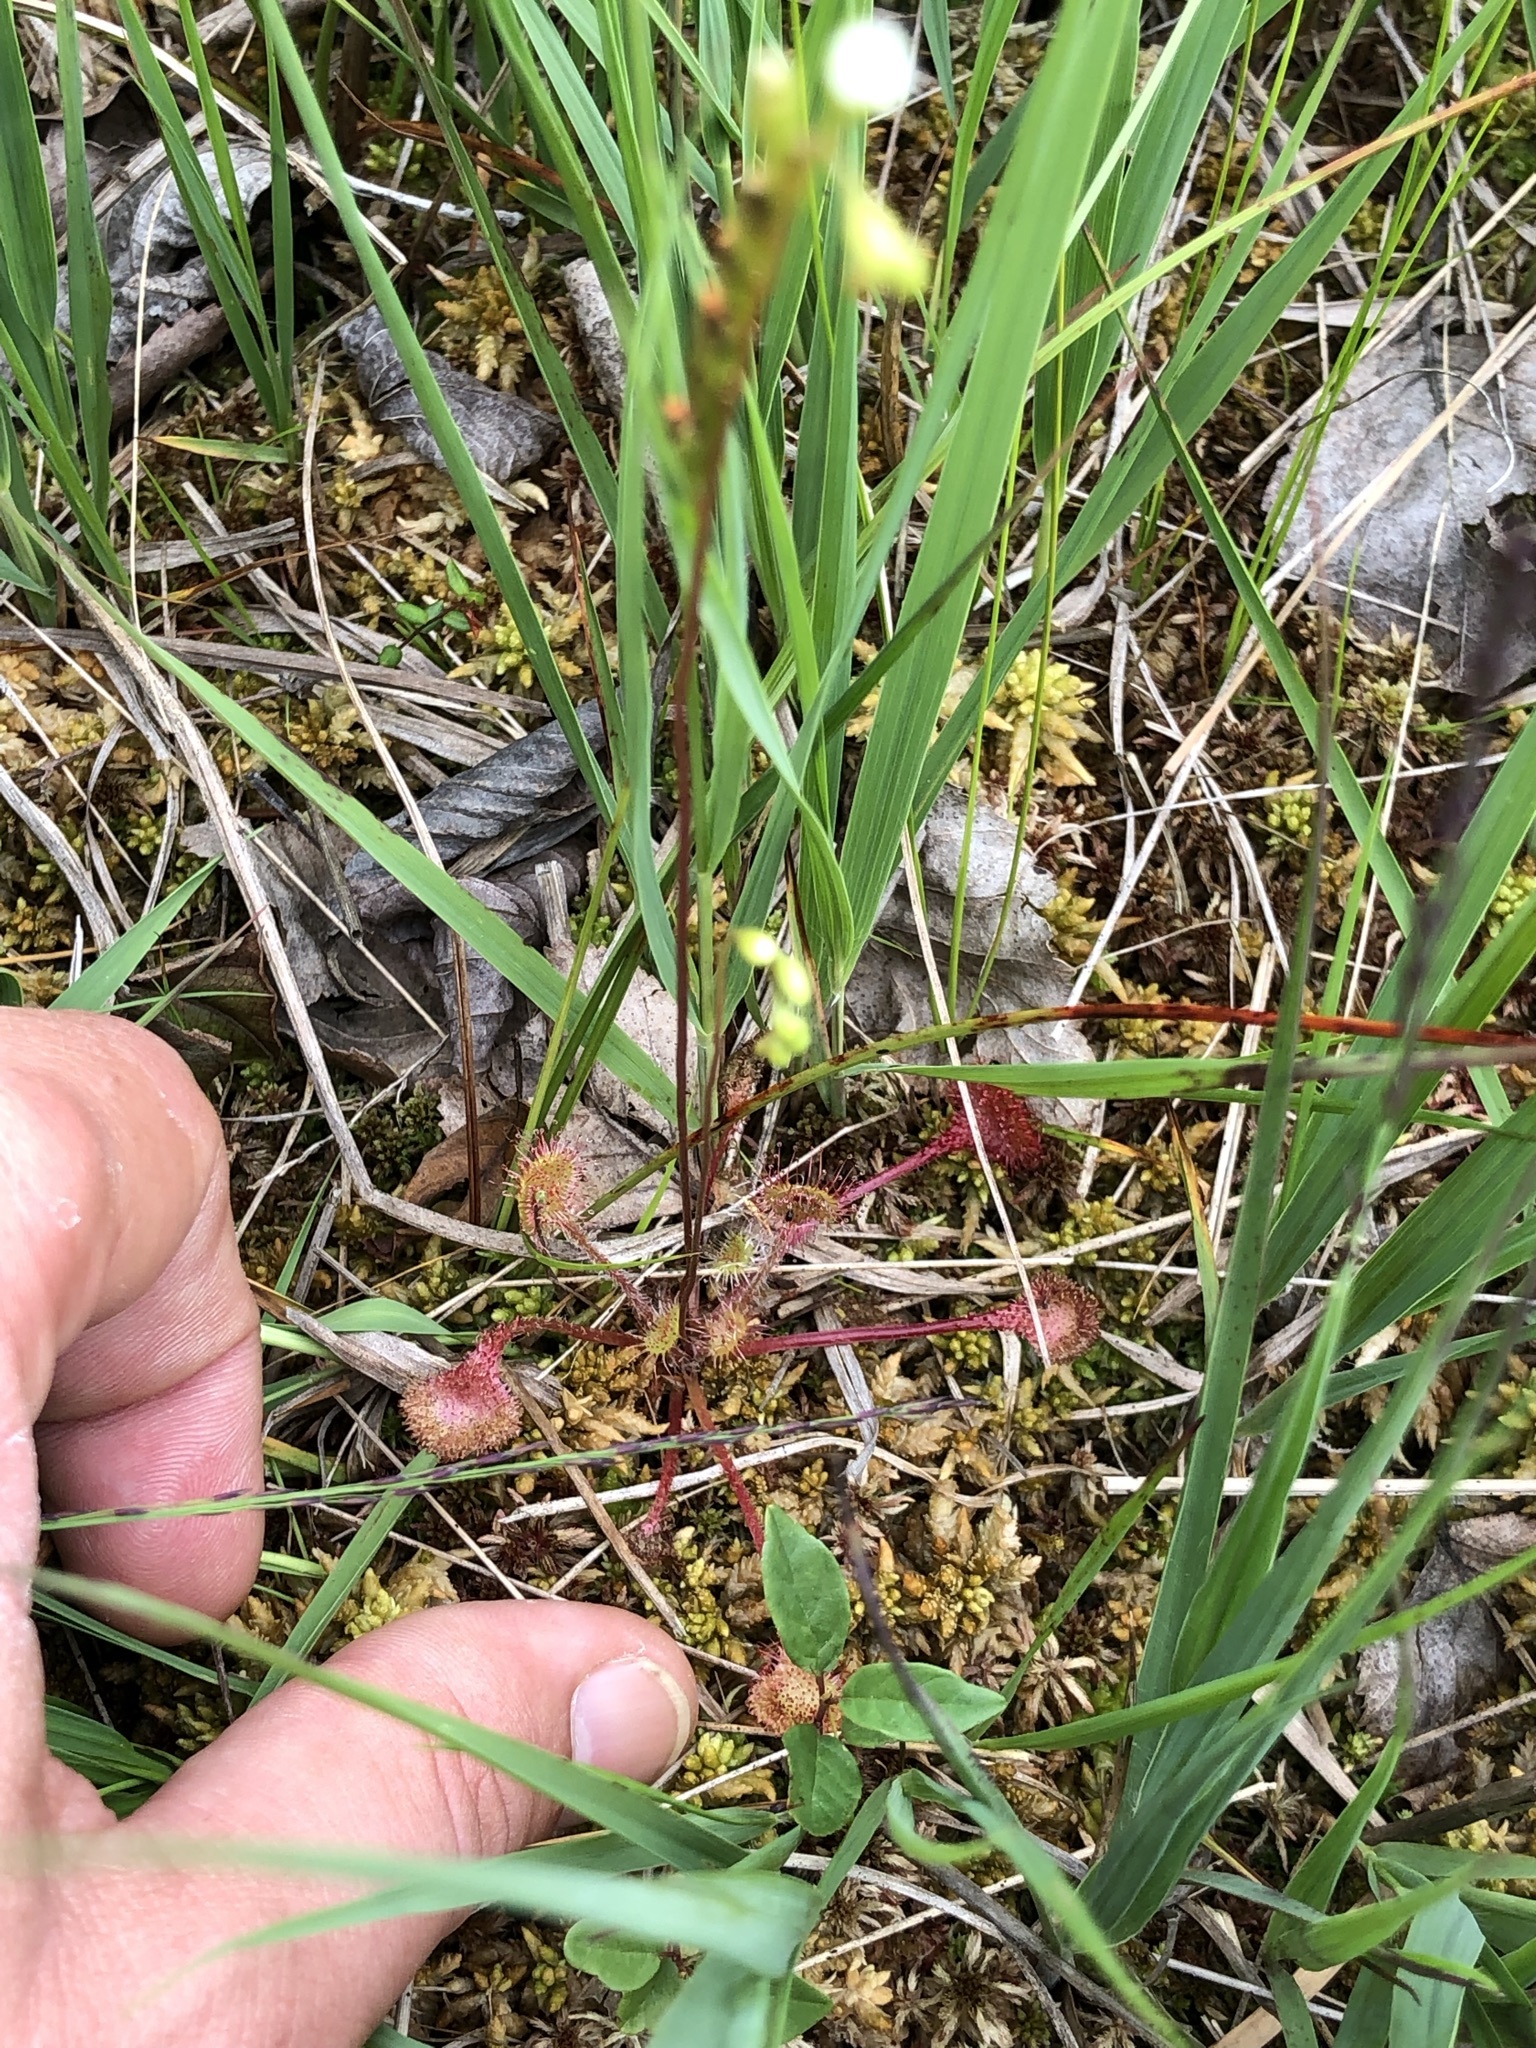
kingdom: Plantae
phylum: Tracheophyta
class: Magnoliopsida
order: Caryophyllales
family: Droseraceae
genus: Drosera
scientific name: Drosera rotundifolia
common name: Round-leaved sundew
